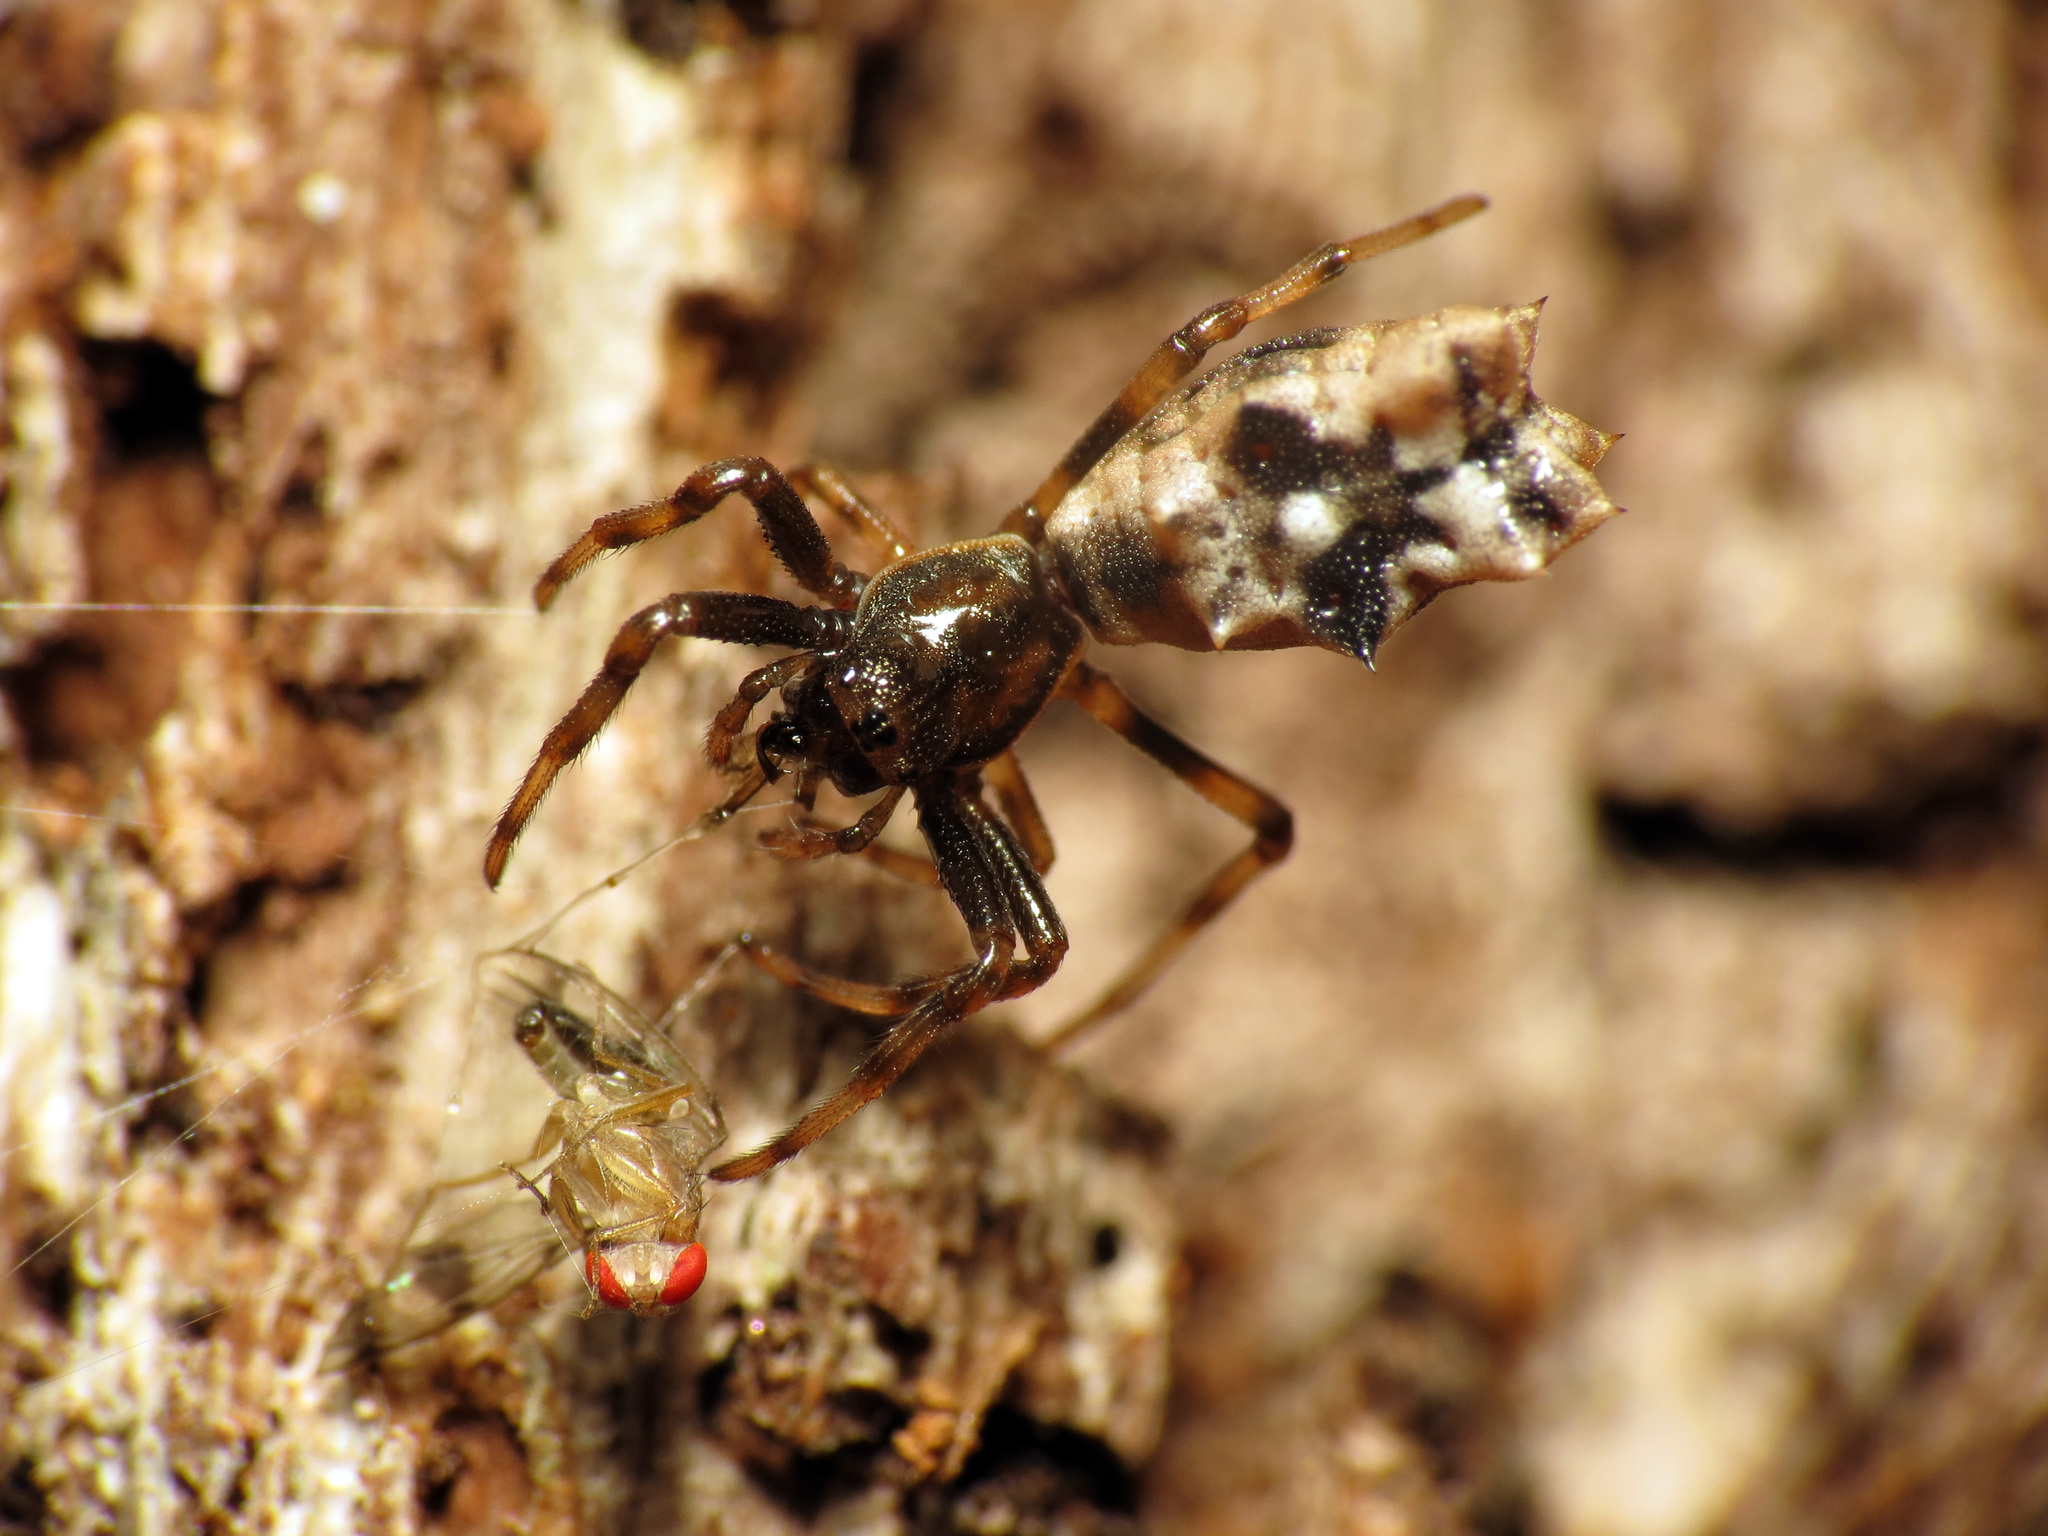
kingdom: Animalia
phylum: Arthropoda
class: Arachnida
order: Araneae
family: Araneidae
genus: Micrathena
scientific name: Micrathena gracilis
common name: Orb weavers
